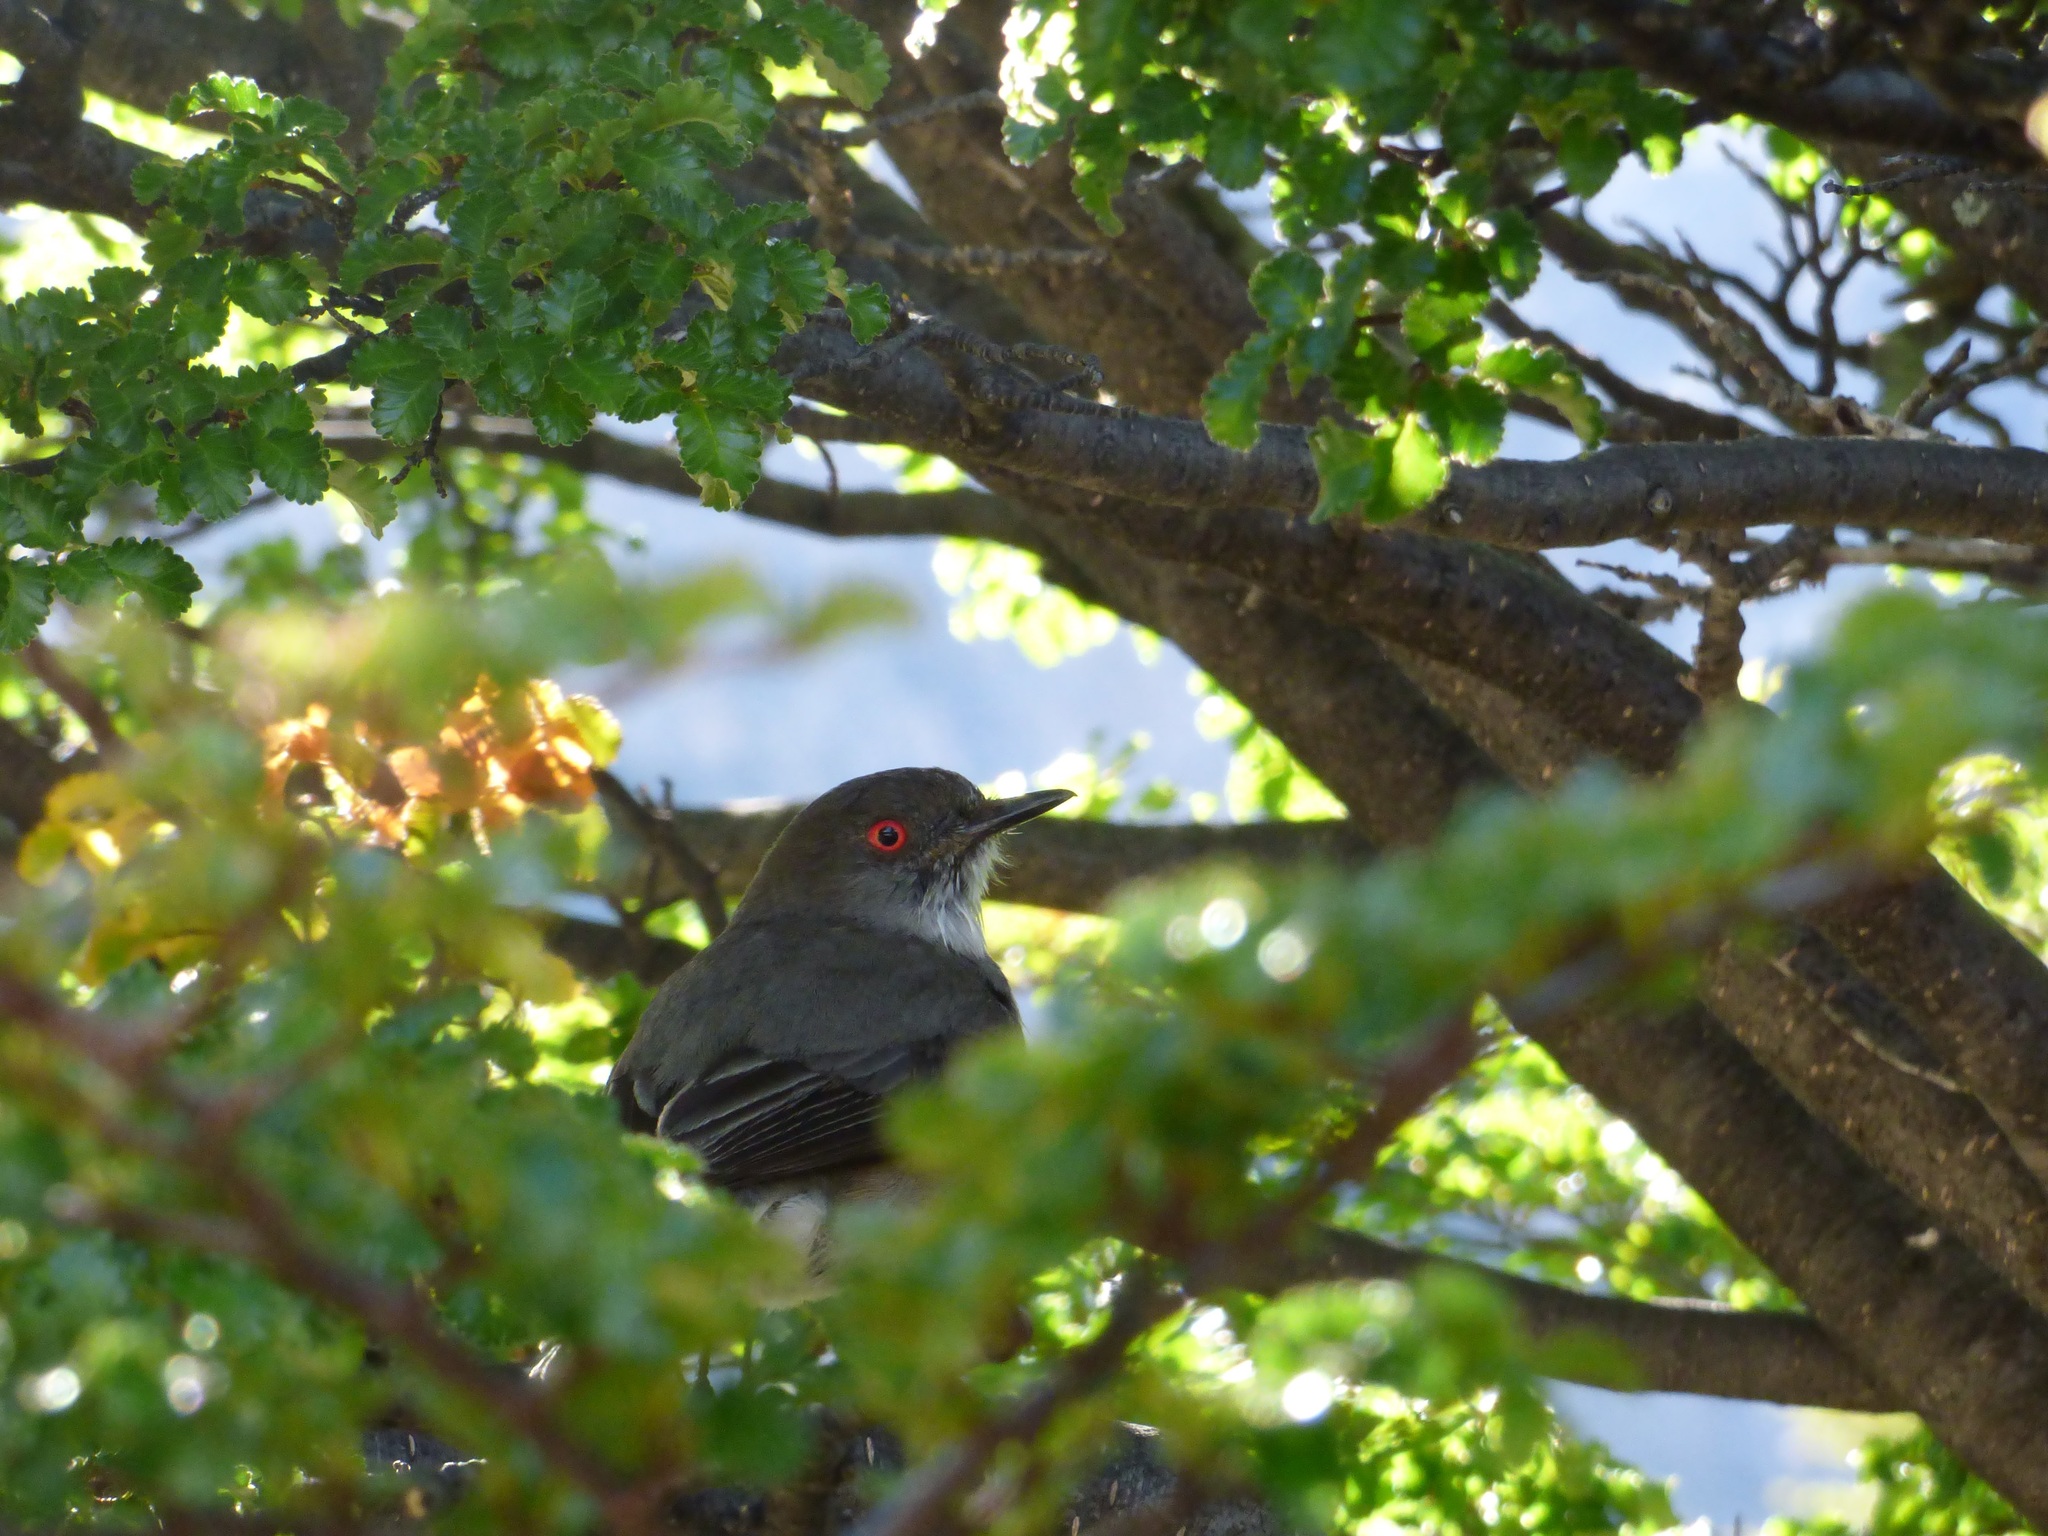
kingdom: Animalia
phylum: Chordata
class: Aves
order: Passeriformes
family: Tyrannidae
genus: Xolmis
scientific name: Xolmis pyrope
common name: Fire-eyed diucon
